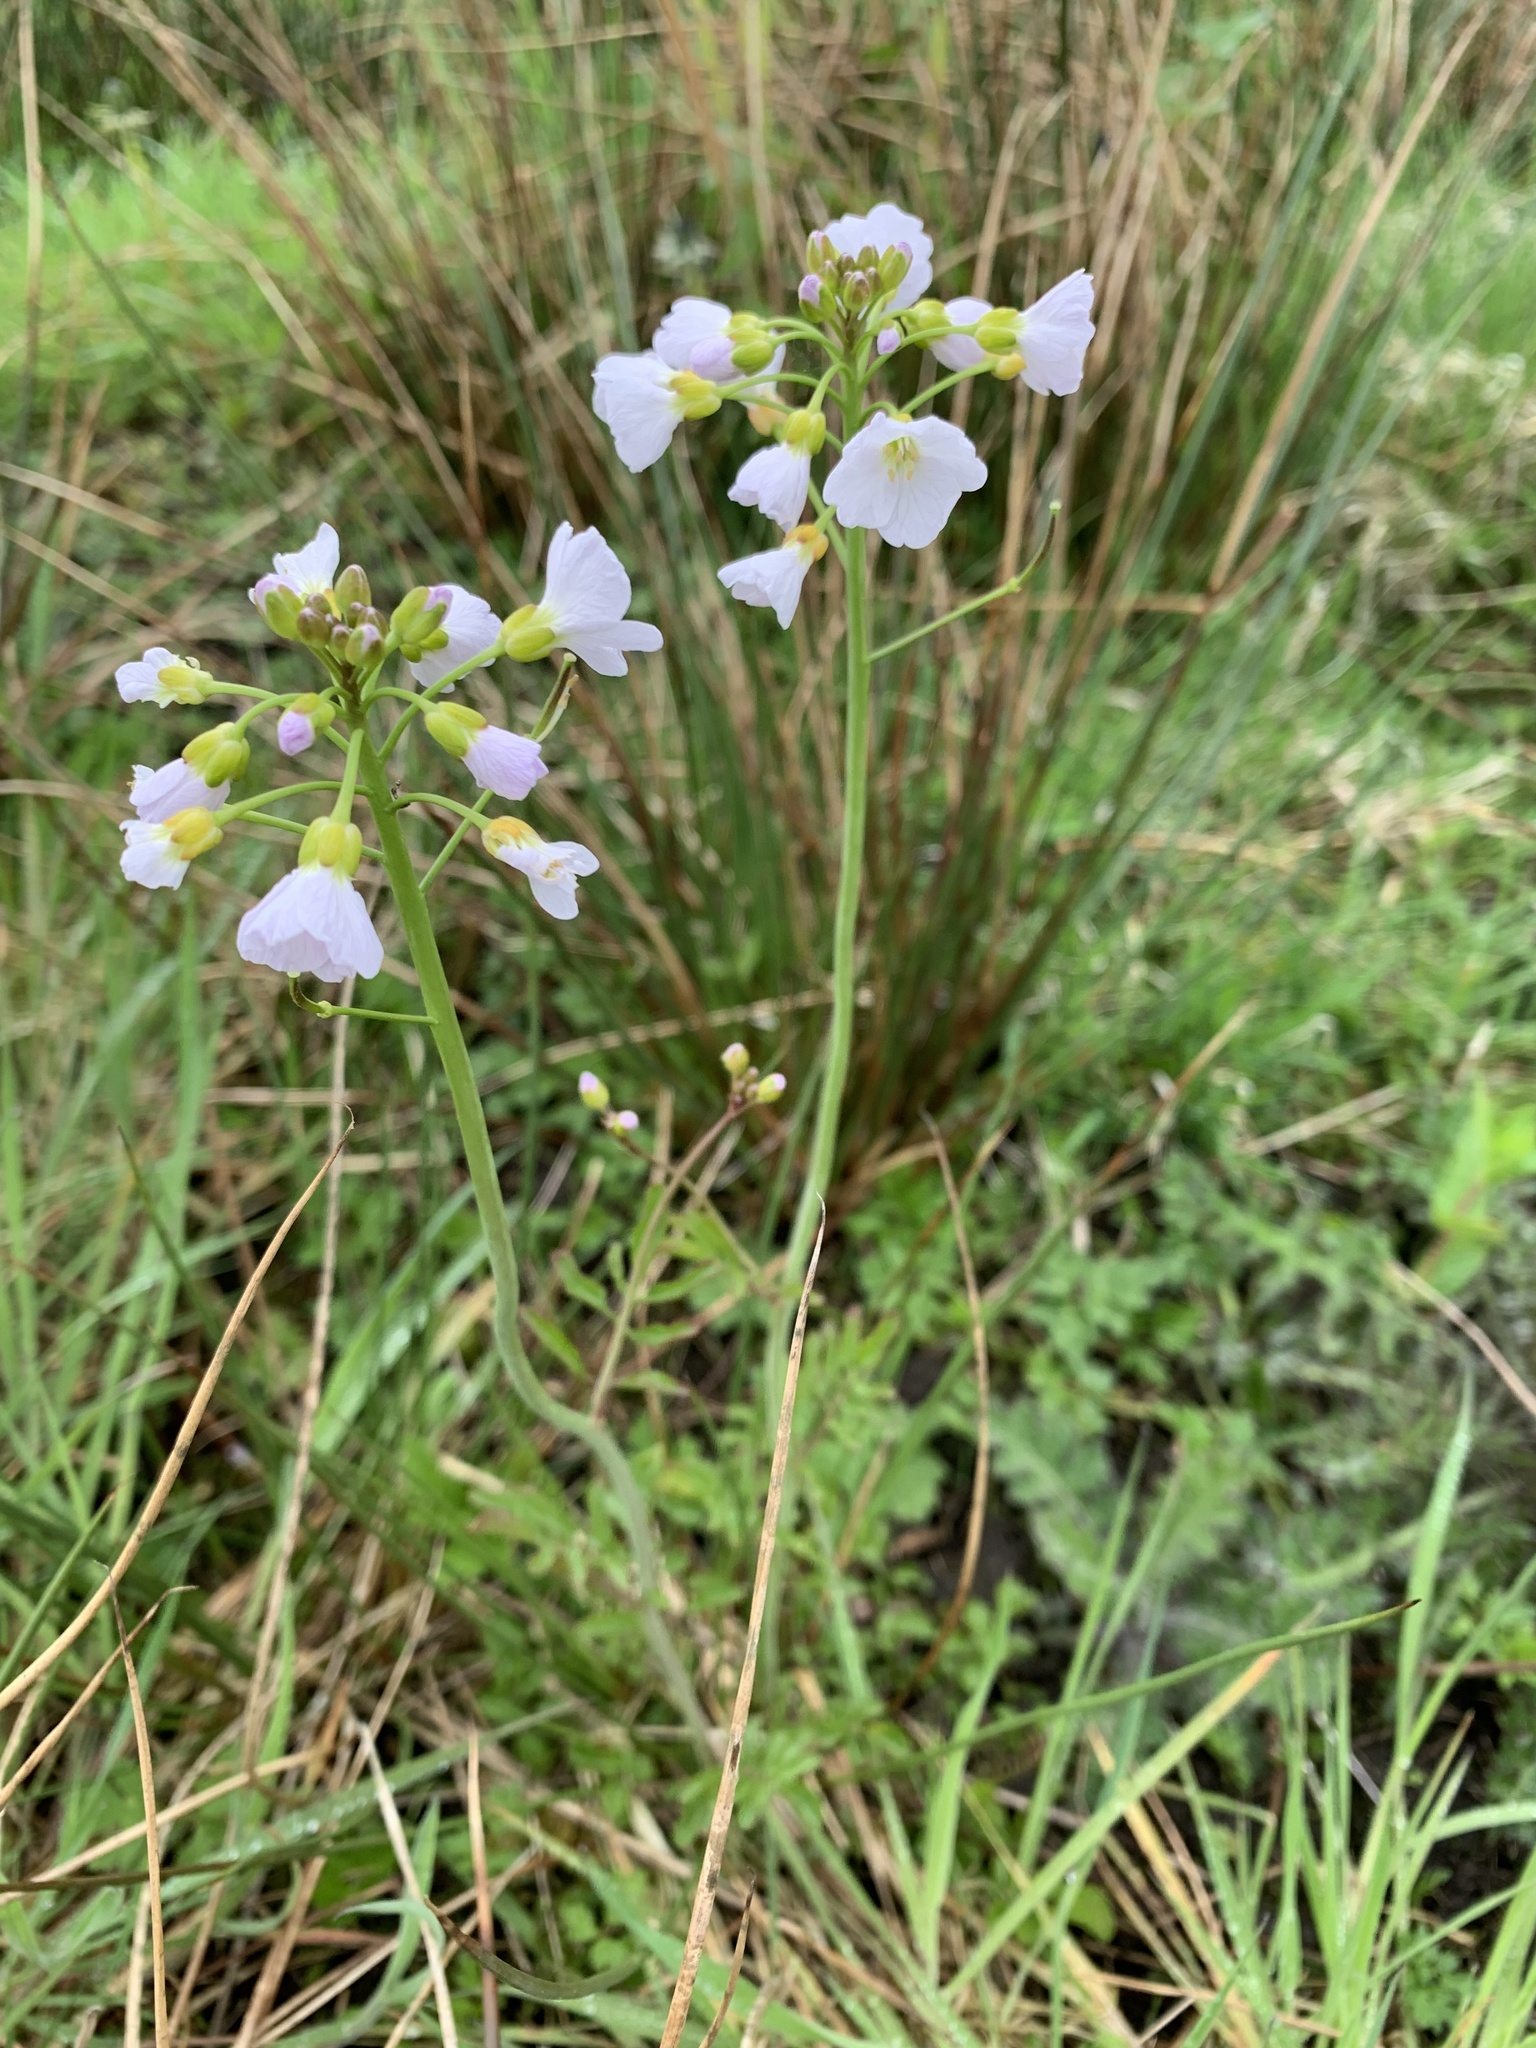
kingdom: Plantae
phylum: Tracheophyta
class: Magnoliopsida
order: Brassicales
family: Brassicaceae
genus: Cardamine
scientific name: Cardamine pratensis
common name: Cuckoo flower
